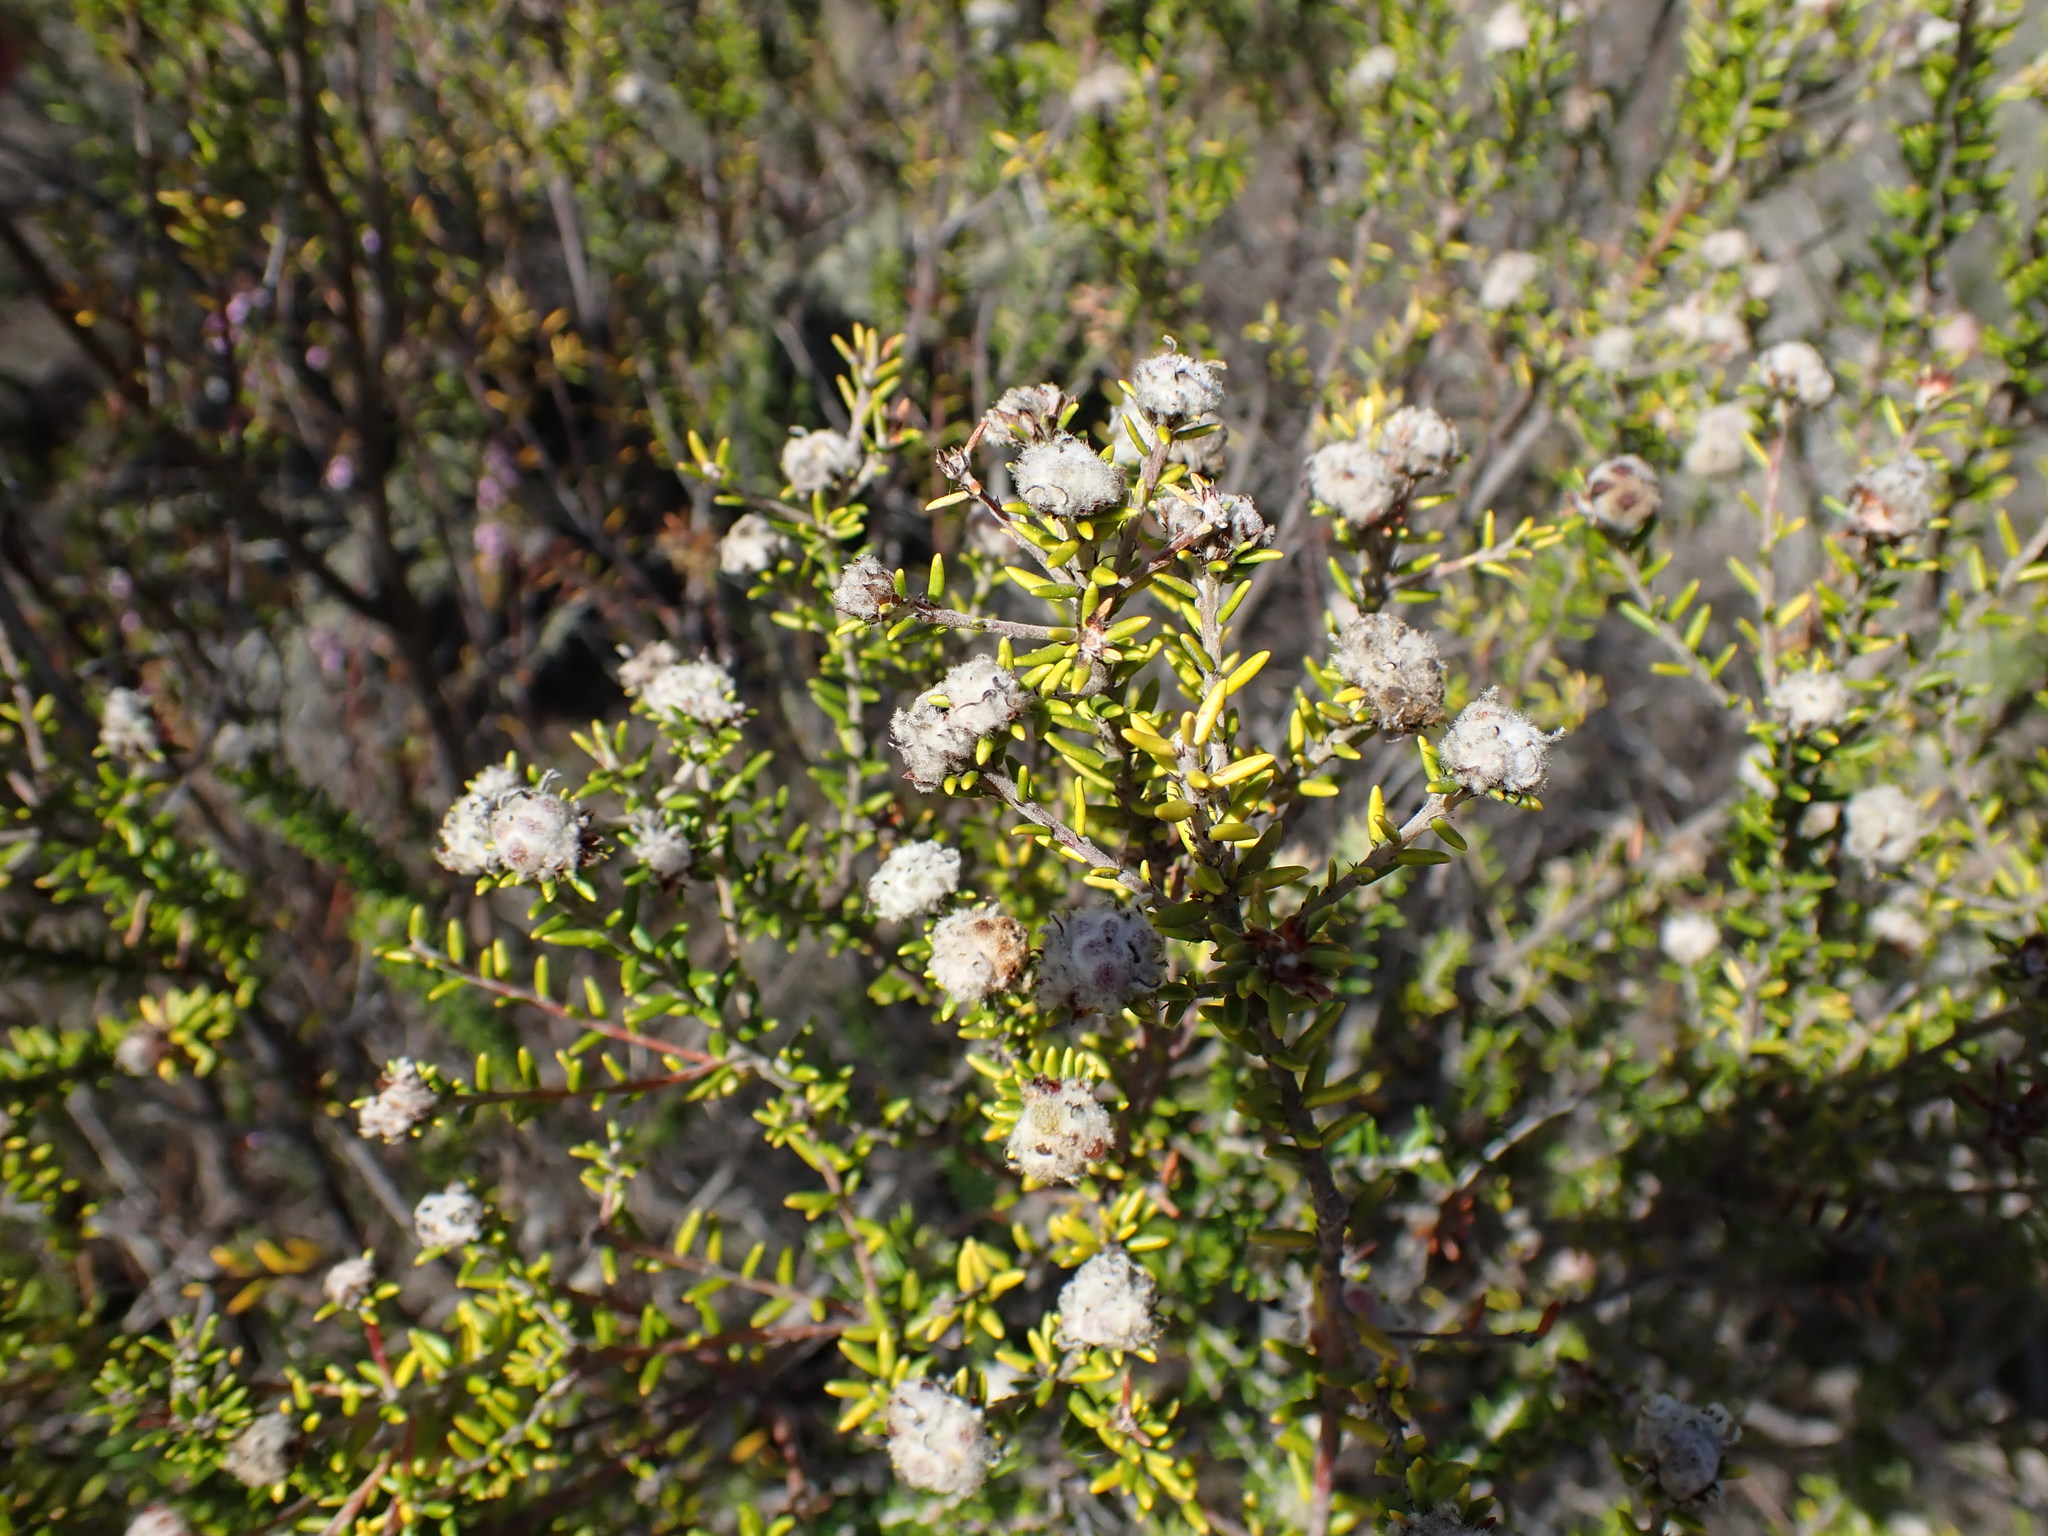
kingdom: Plantae
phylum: Tracheophyta
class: Magnoliopsida
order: Rosales
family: Rhamnaceae
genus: Trichocephalus
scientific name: Trichocephalus stipularis
